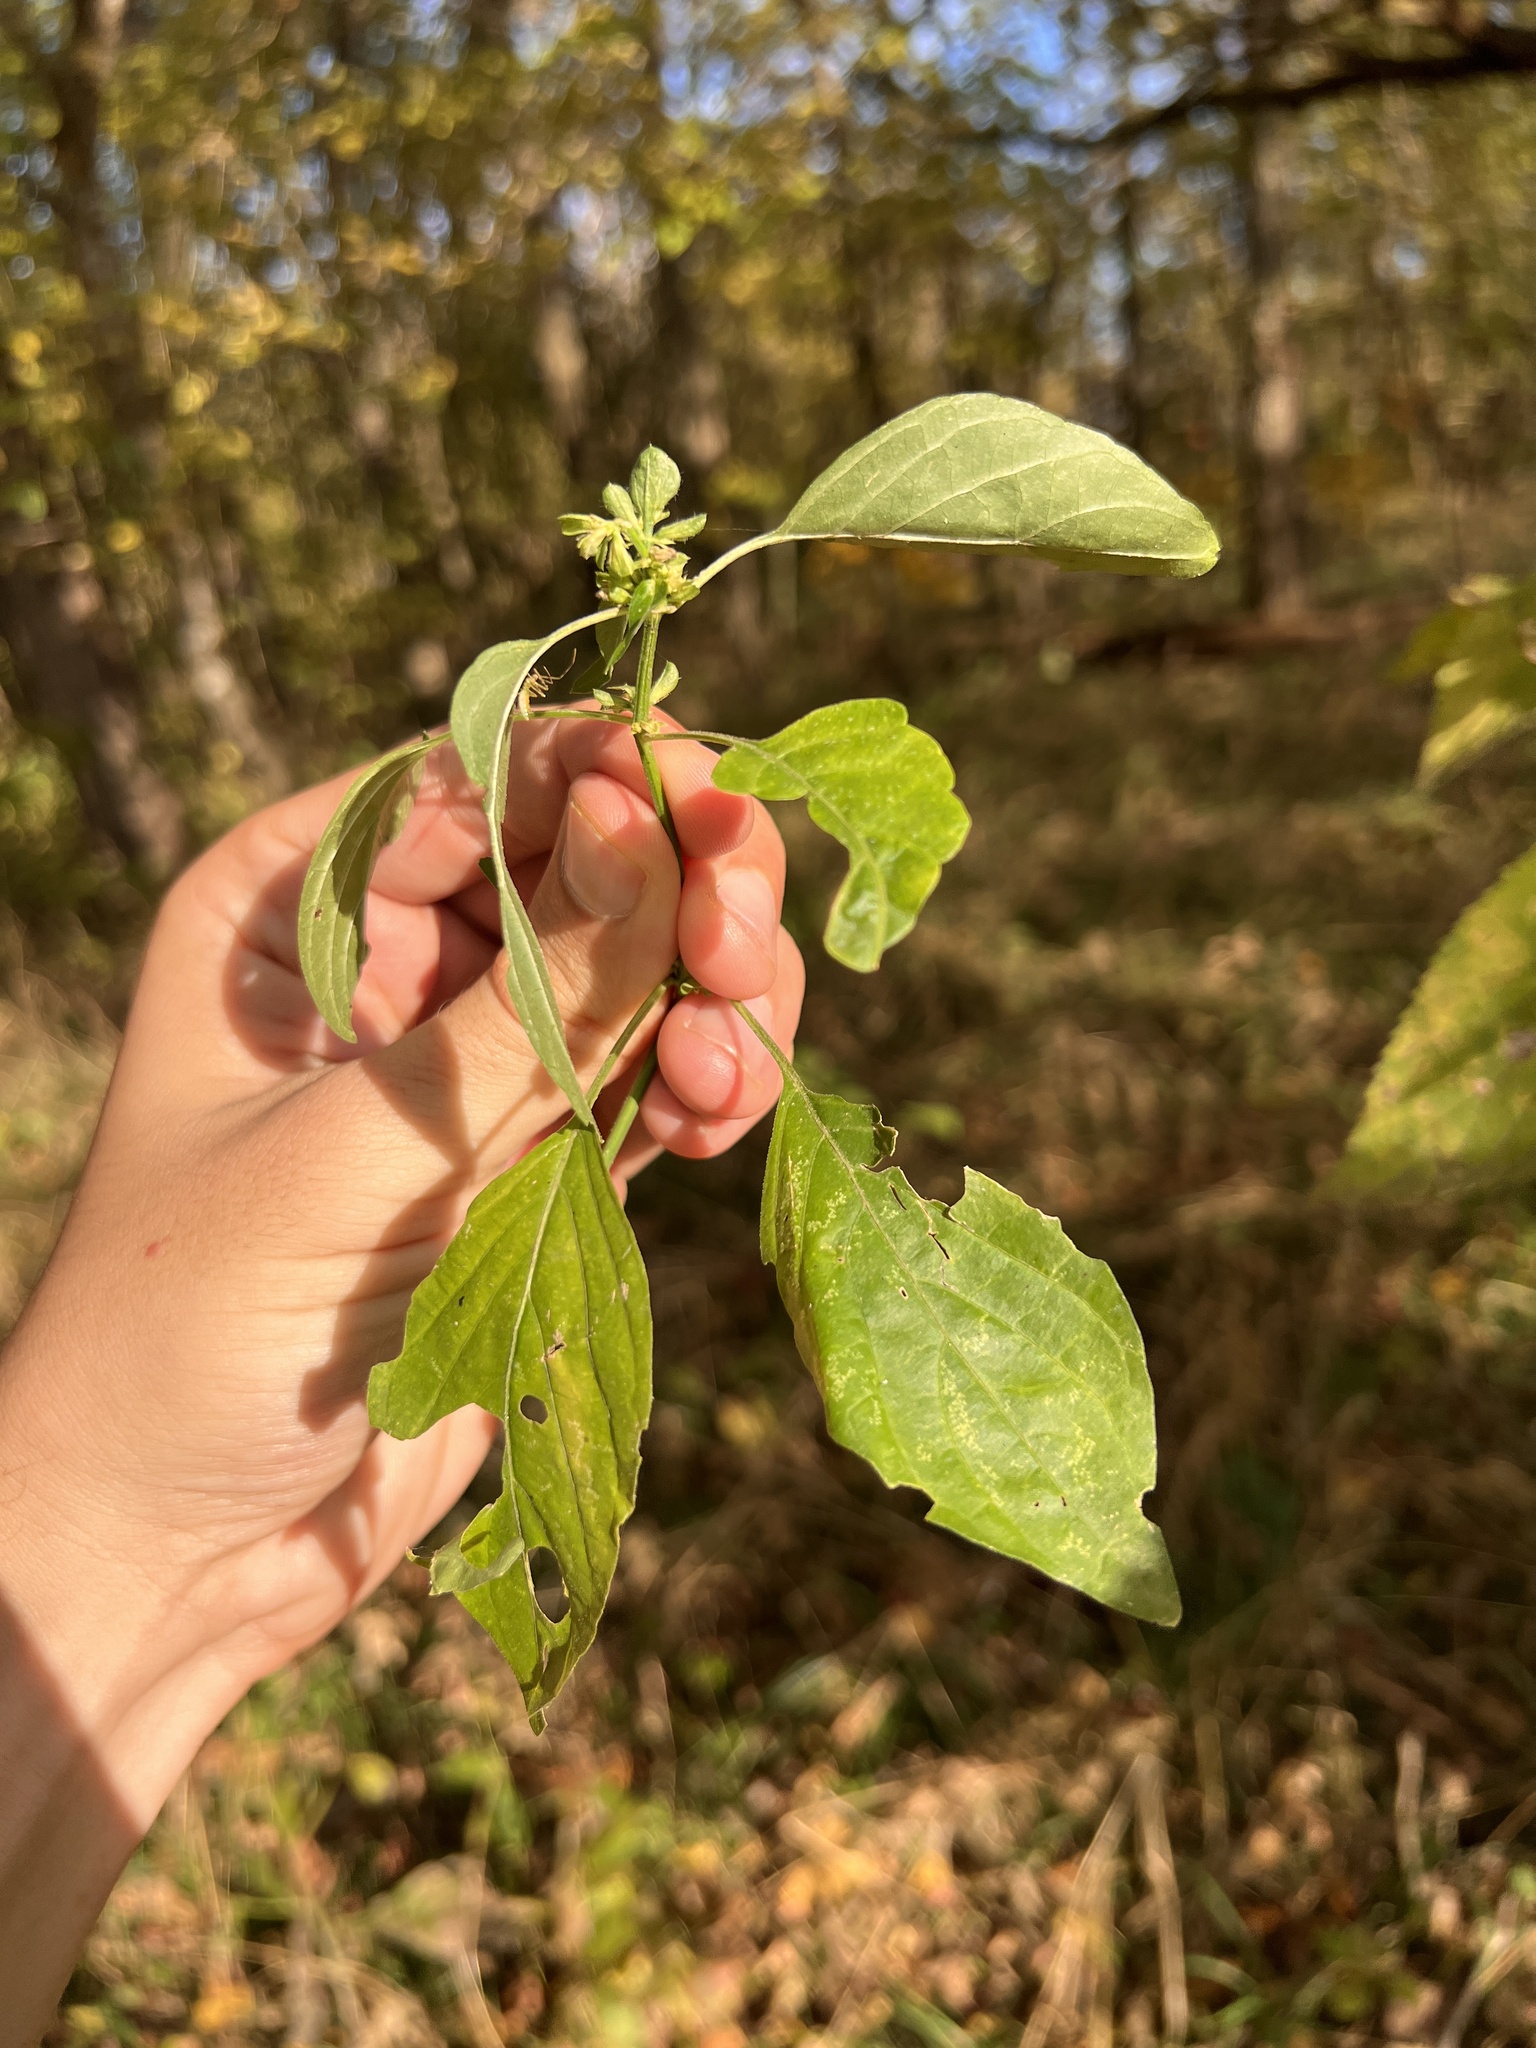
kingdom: Plantae
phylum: Tracheophyta
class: Magnoliopsida
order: Lamiales
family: Acanthaceae
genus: Dicliptera
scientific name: Dicliptera brachiata
